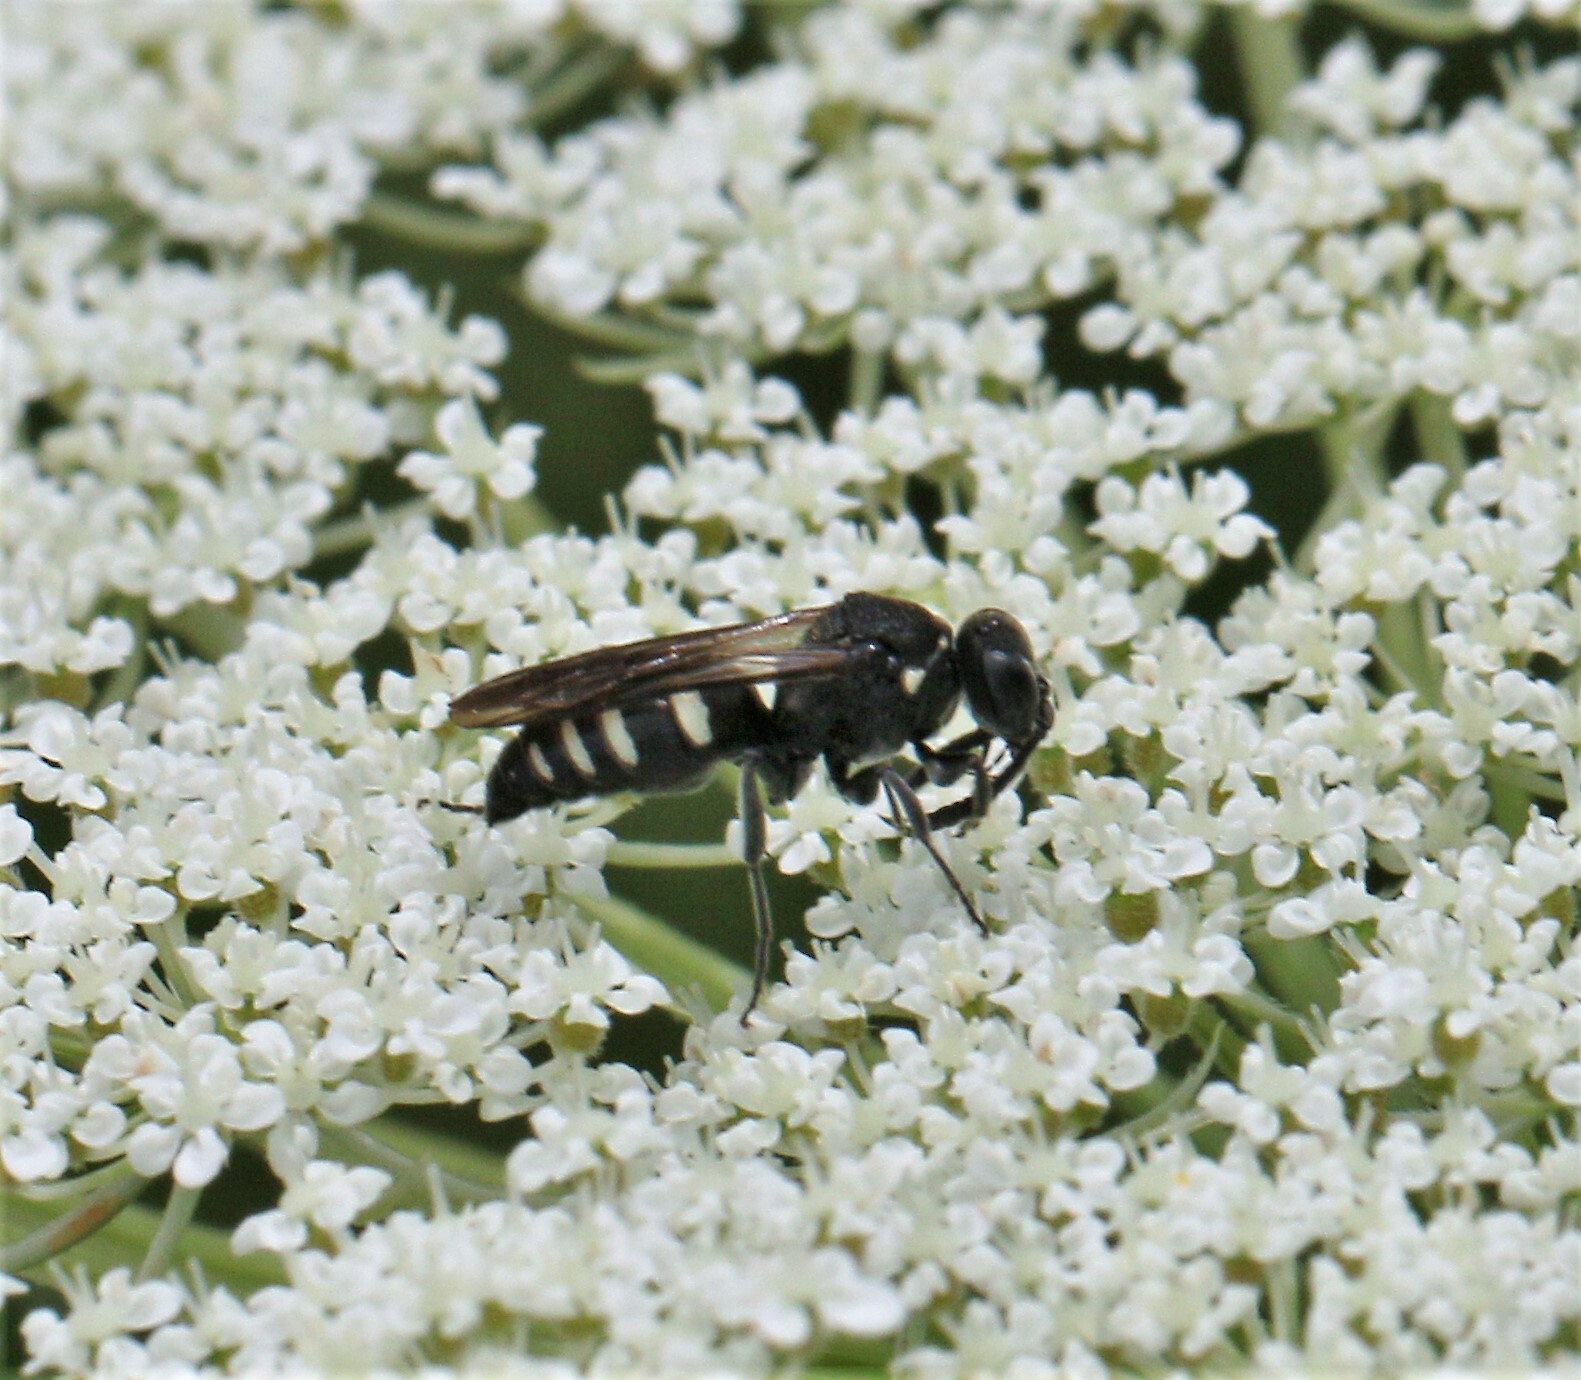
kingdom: Animalia
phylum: Arthropoda
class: Insecta
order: Hymenoptera
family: Crabronidae
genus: Nysson
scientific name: Nysson lateralis
